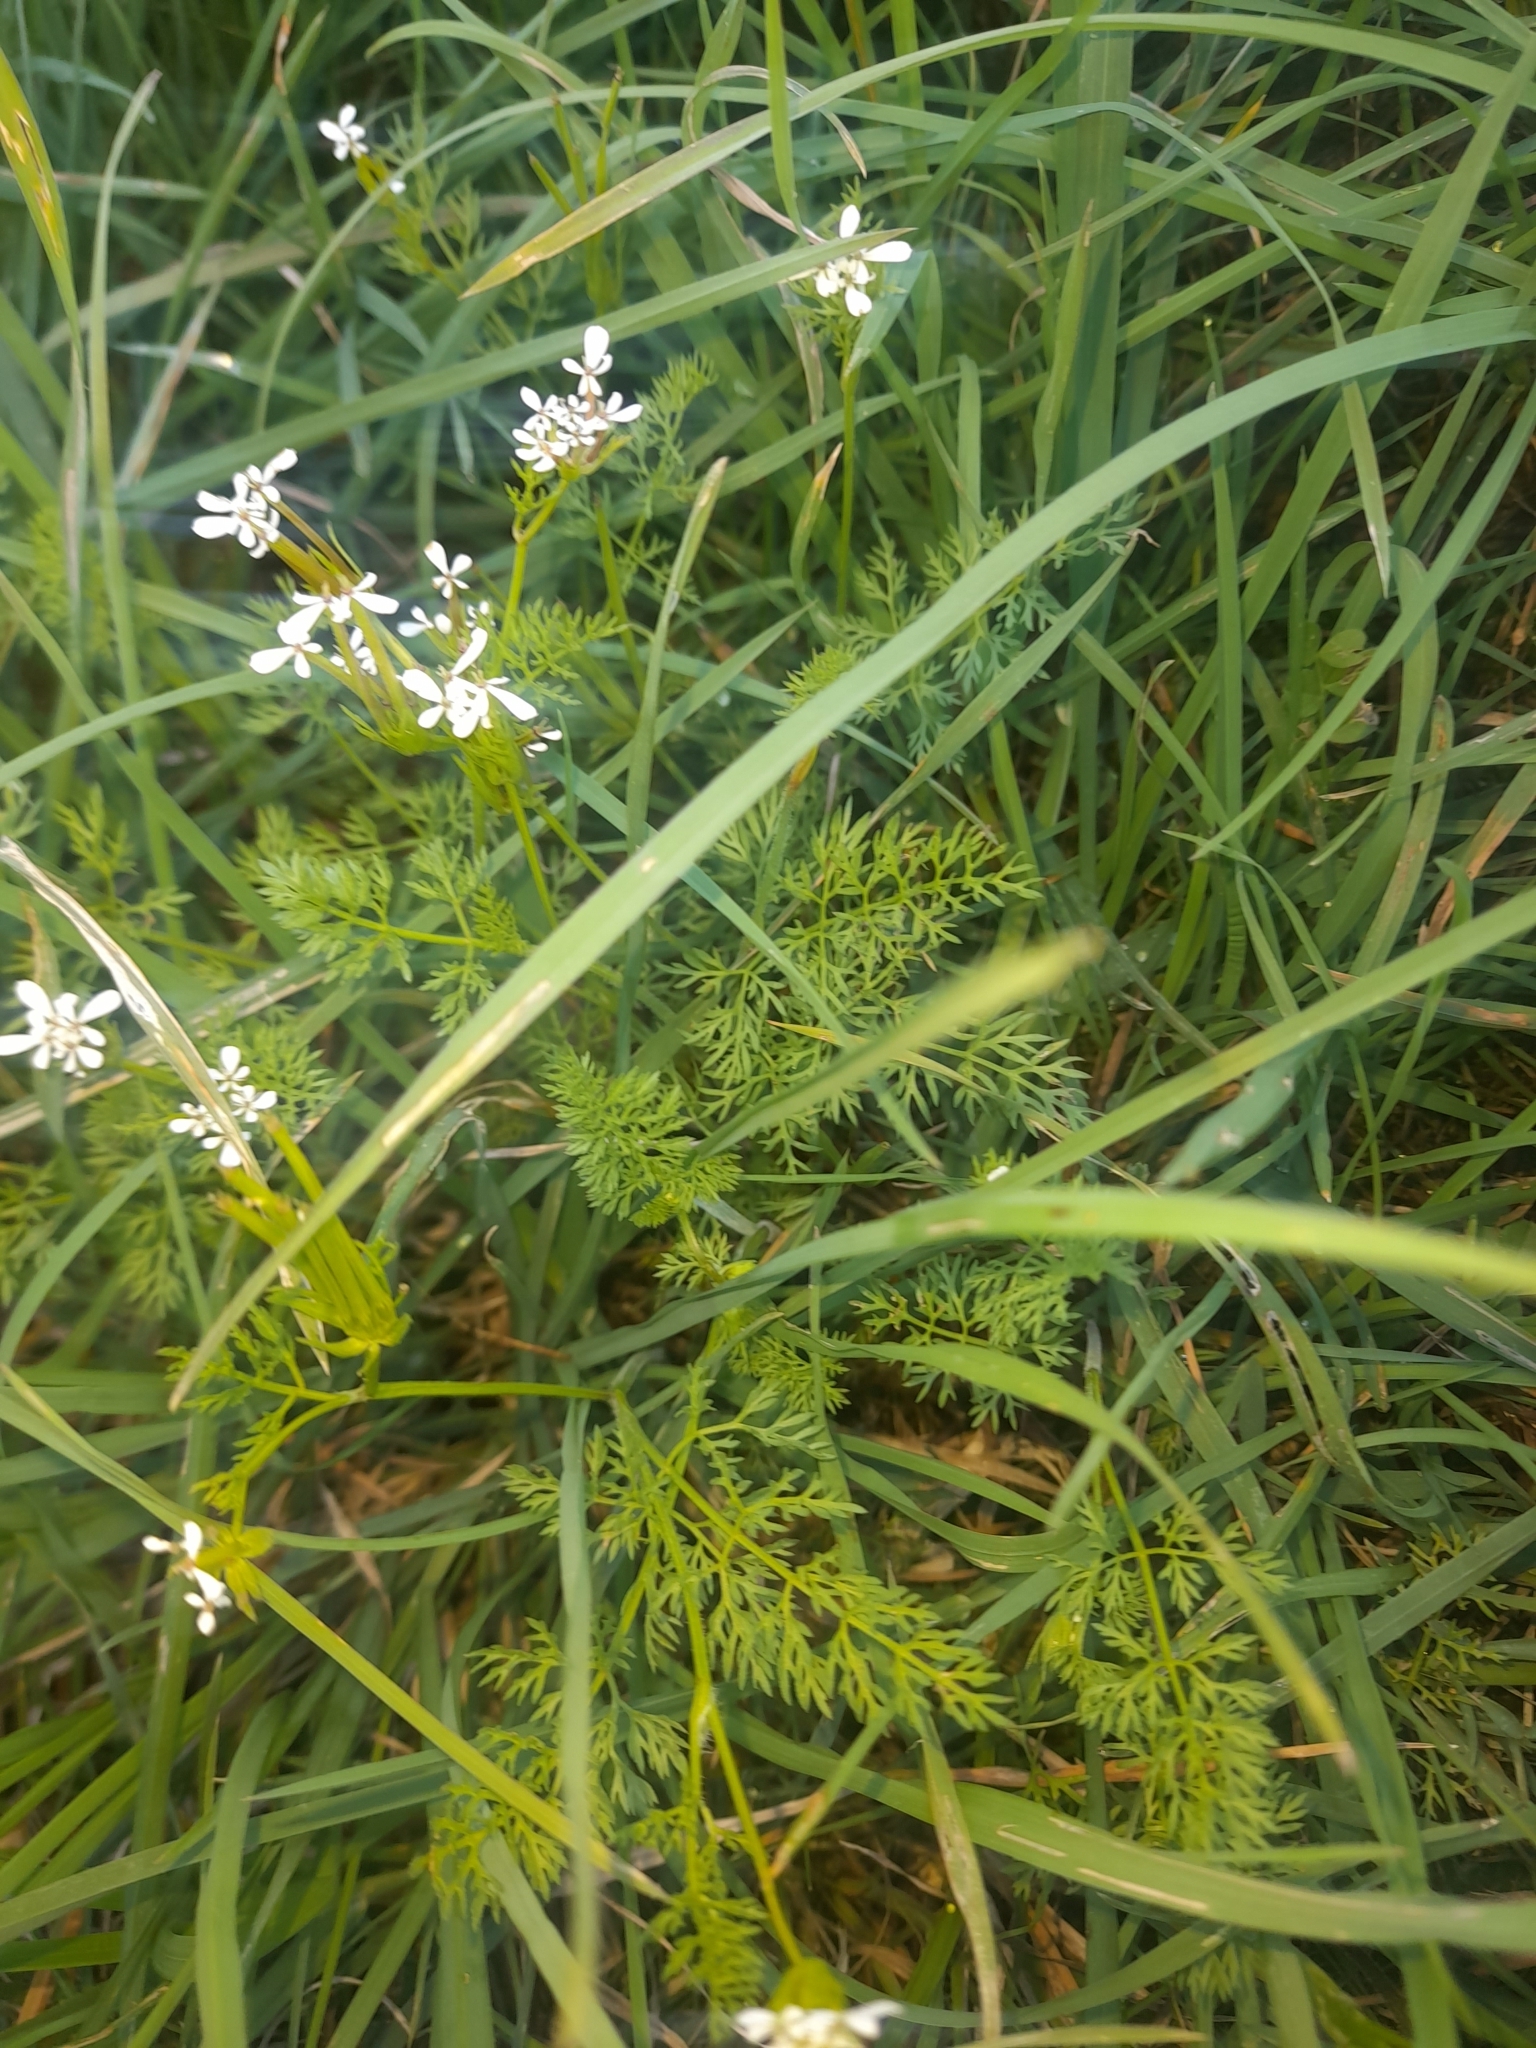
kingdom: Plantae
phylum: Tracheophyta
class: Magnoliopsida
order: Apiales
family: Apiaceae
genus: Scandix
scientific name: Scandix pecten-veneris
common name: Shepherd's-needle
